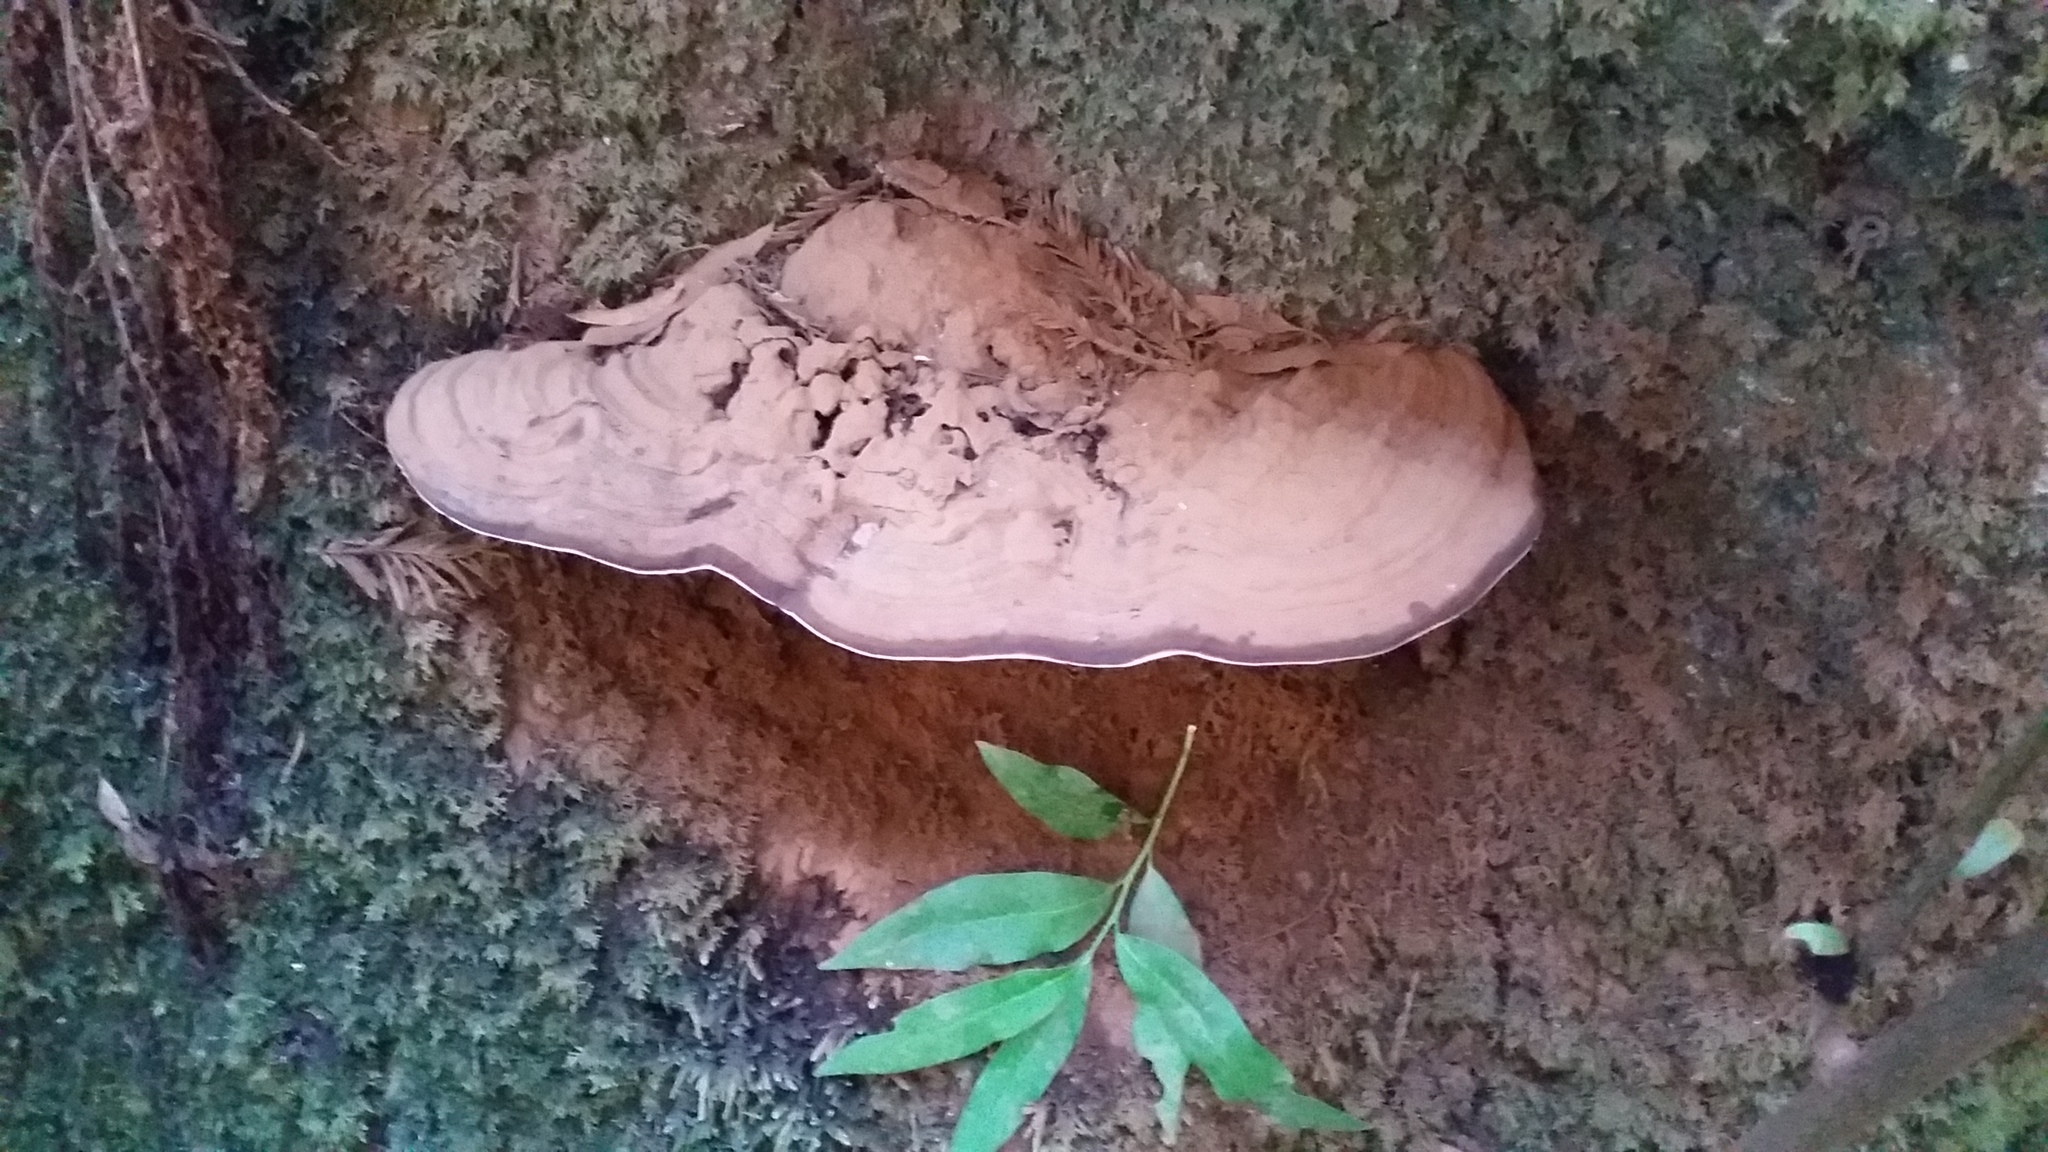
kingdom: Fungi
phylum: Basidiomycota
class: Agaricomycetes
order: Polyporales
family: Polyporaceae
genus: Ganoderma
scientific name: Ganoderma brownii
